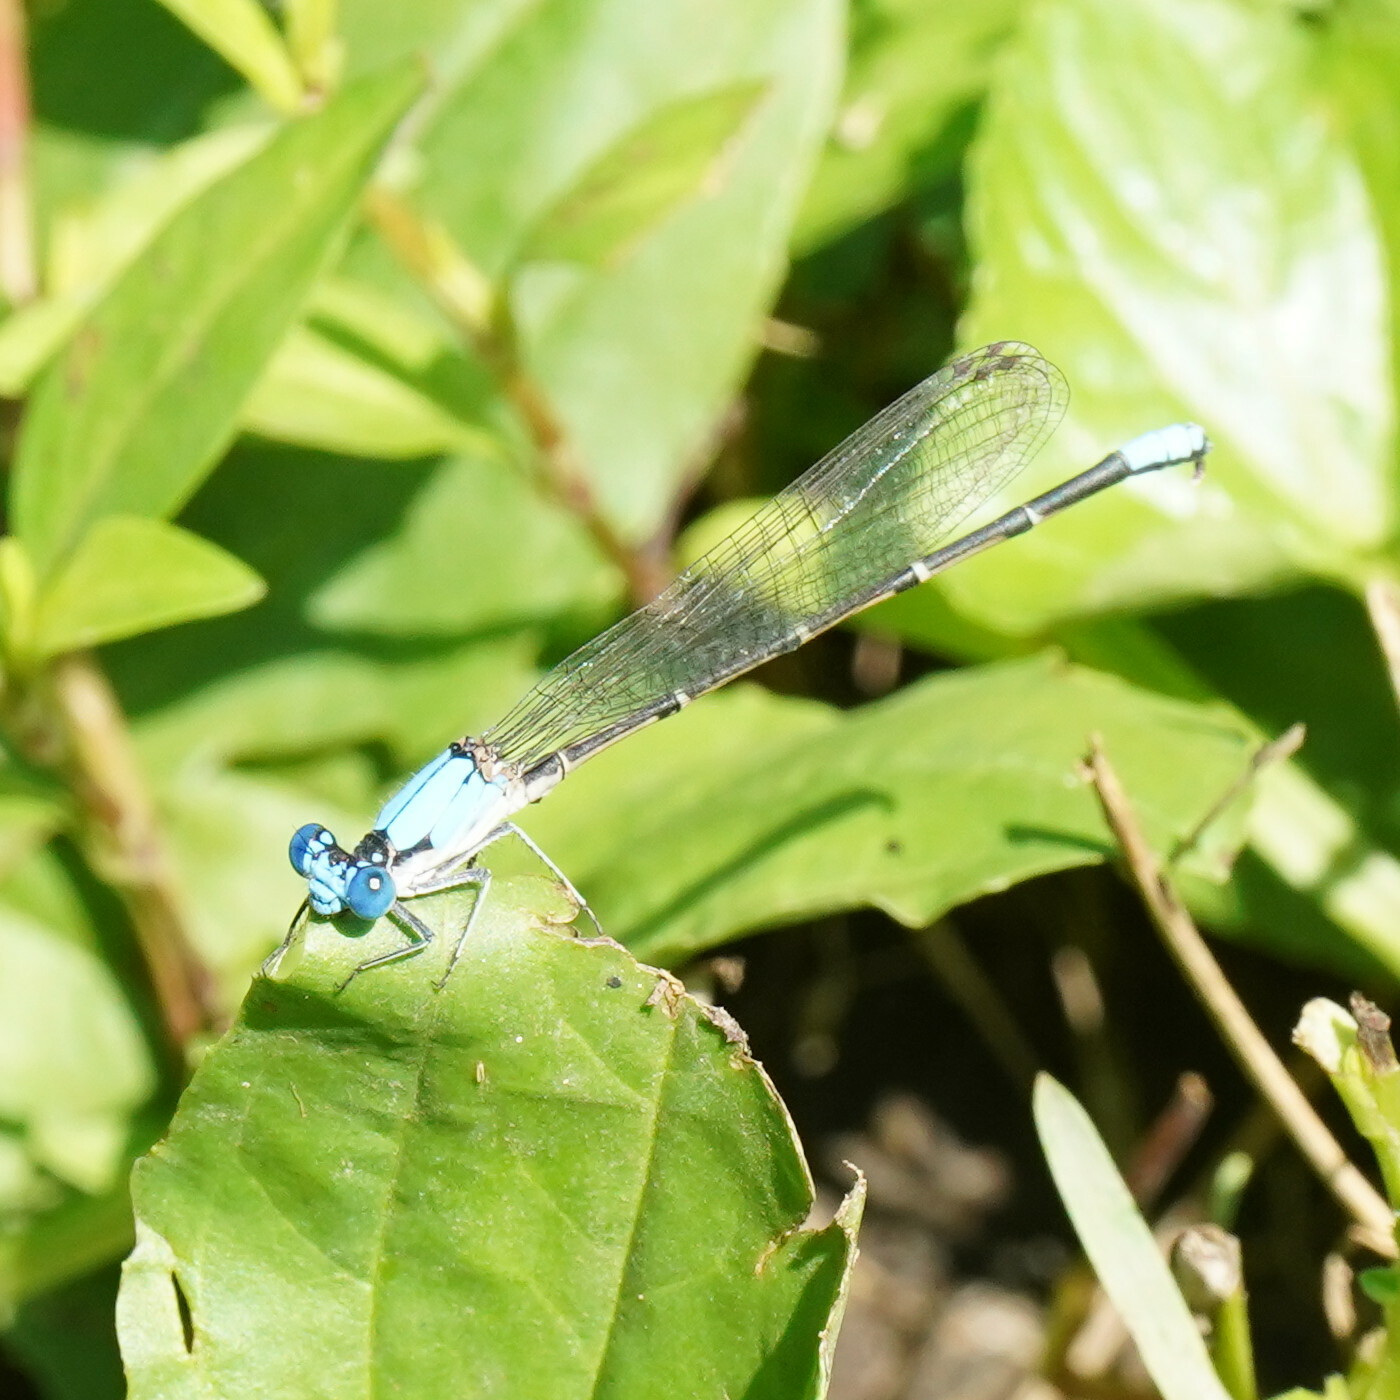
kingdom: Animalia
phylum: Arthropoda
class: Insecta
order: Odonata
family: Coenagrionidae
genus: Argia
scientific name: Argia apicalis
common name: Blue-fronted dancer
